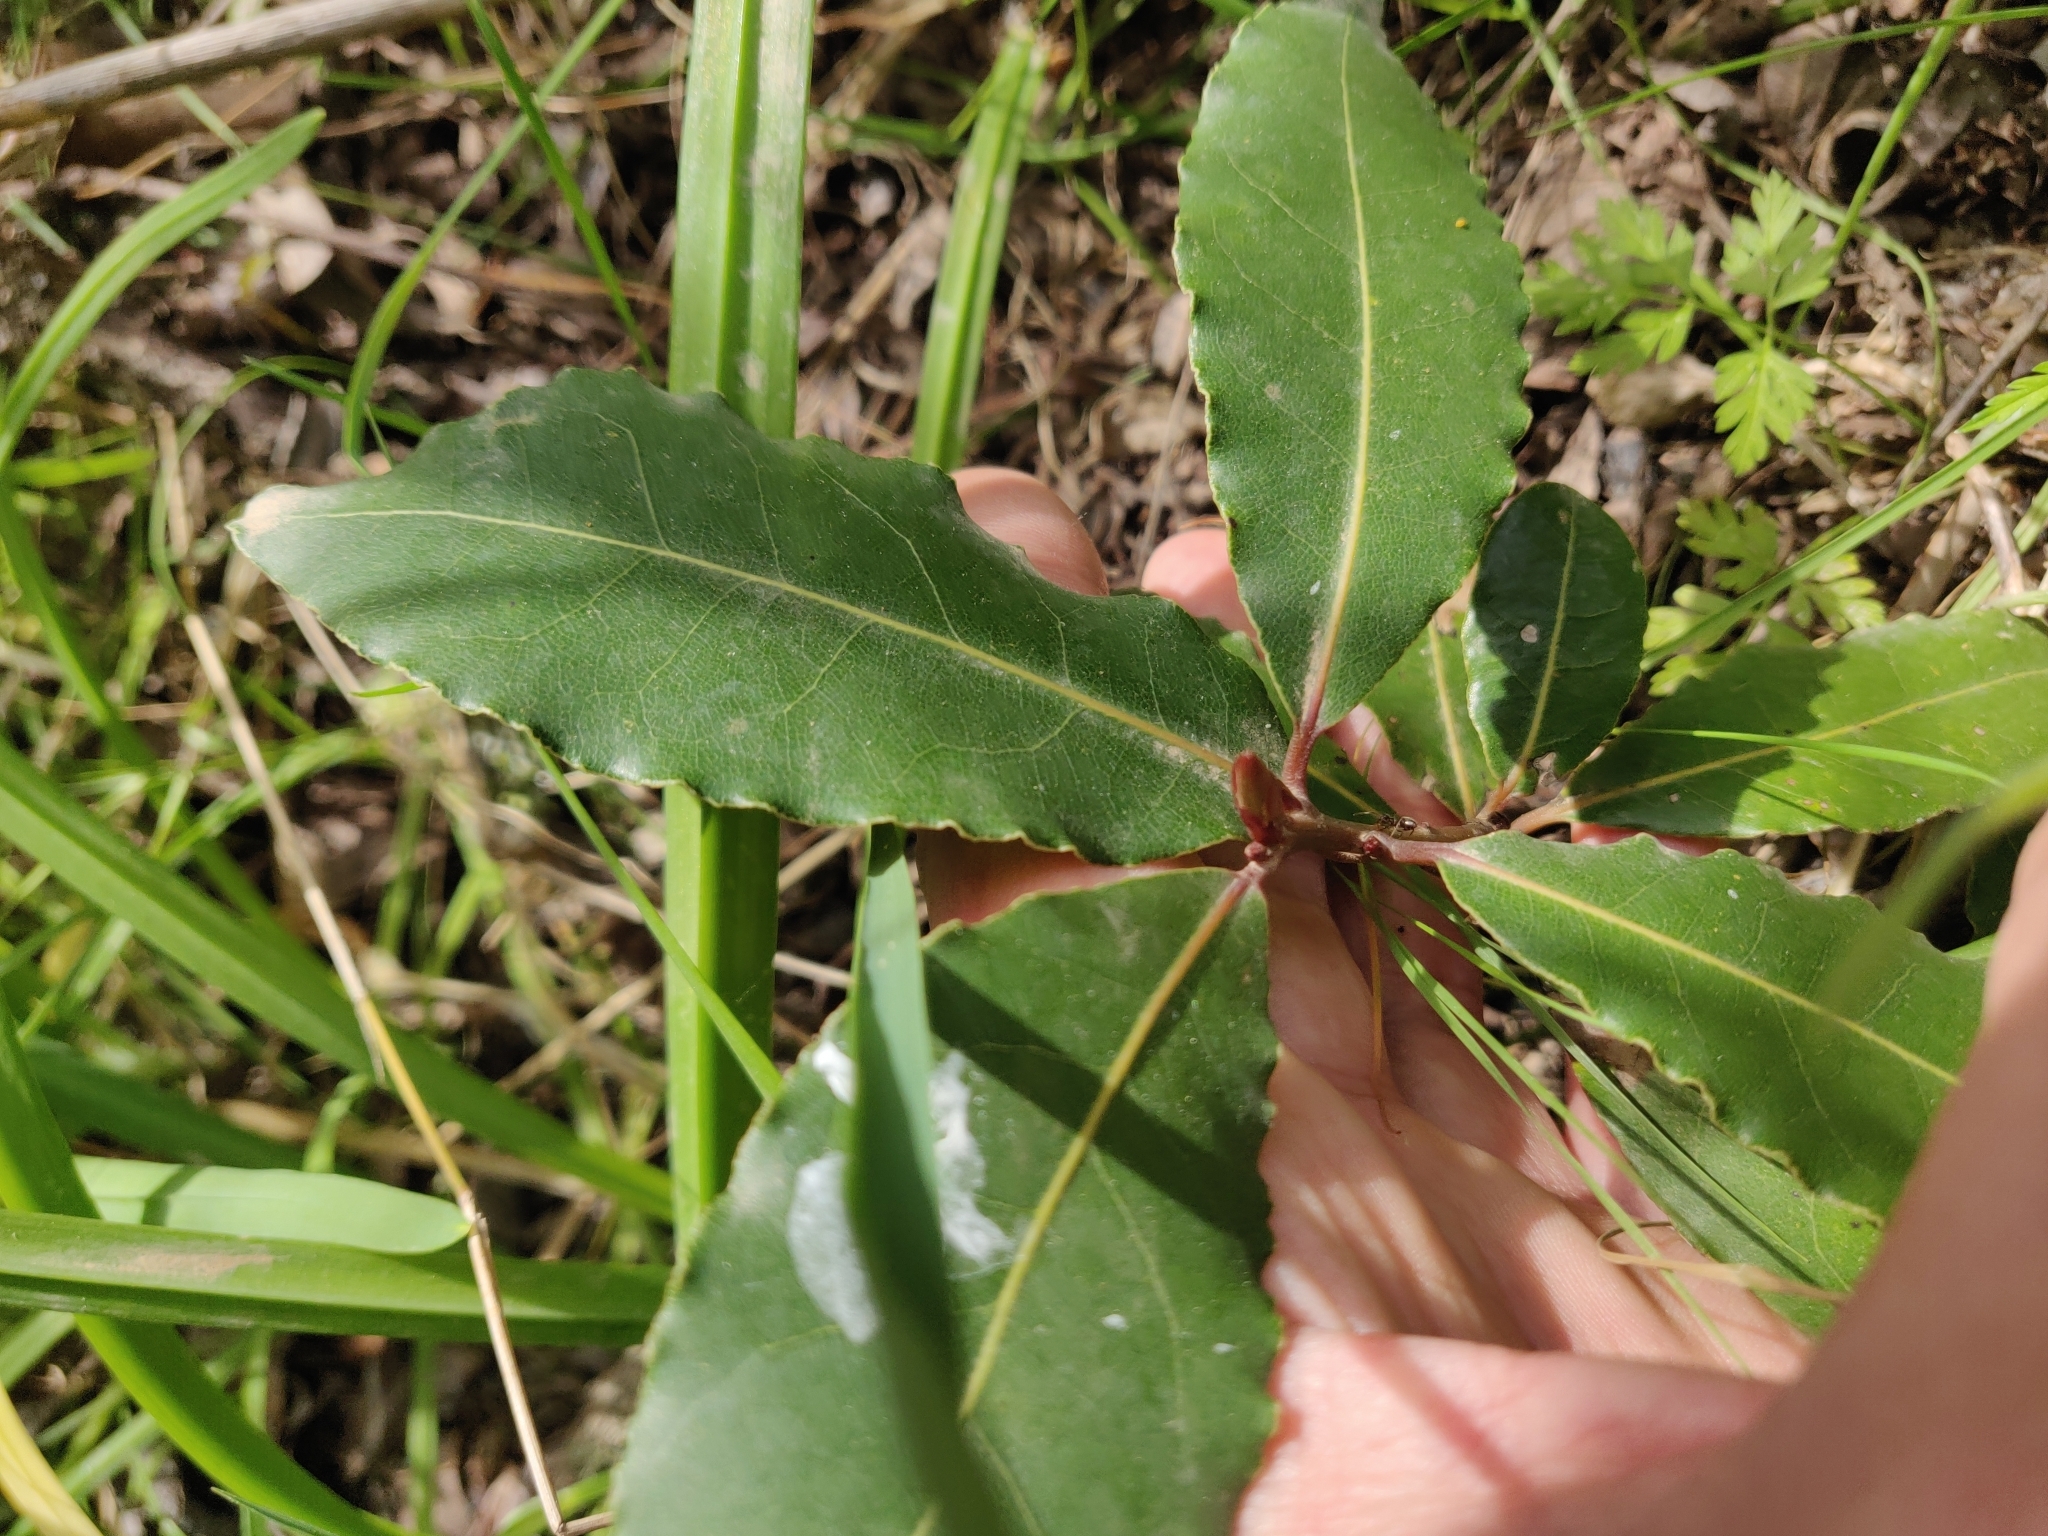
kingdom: Plantae
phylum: Tracheophyta
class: Magnoliopsida
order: Laurales
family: Lauraceae
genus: Laurus
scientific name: Laurus nobilis
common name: Bay
